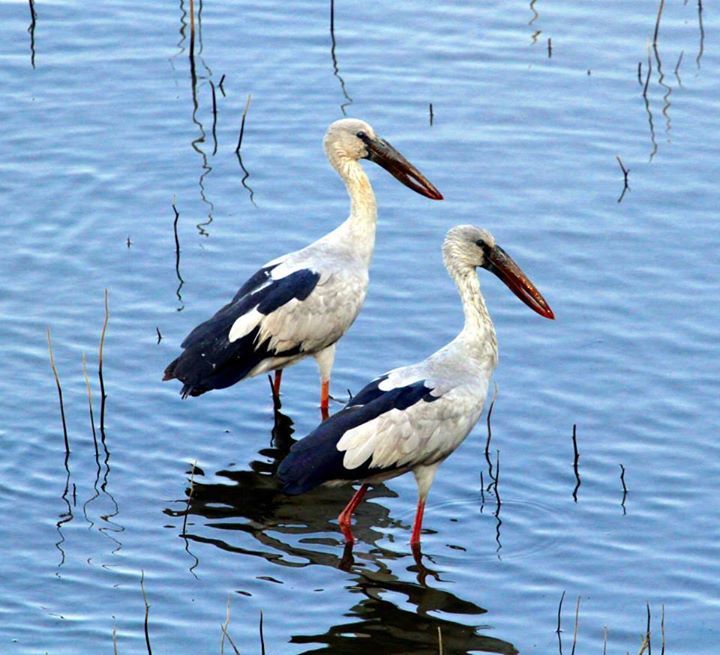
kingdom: Animalia
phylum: Chordata
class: Aves
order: Ciconiiformes
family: Ciconiidae
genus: Anastomus
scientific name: Anastomus oscitans
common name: Asian openbill
